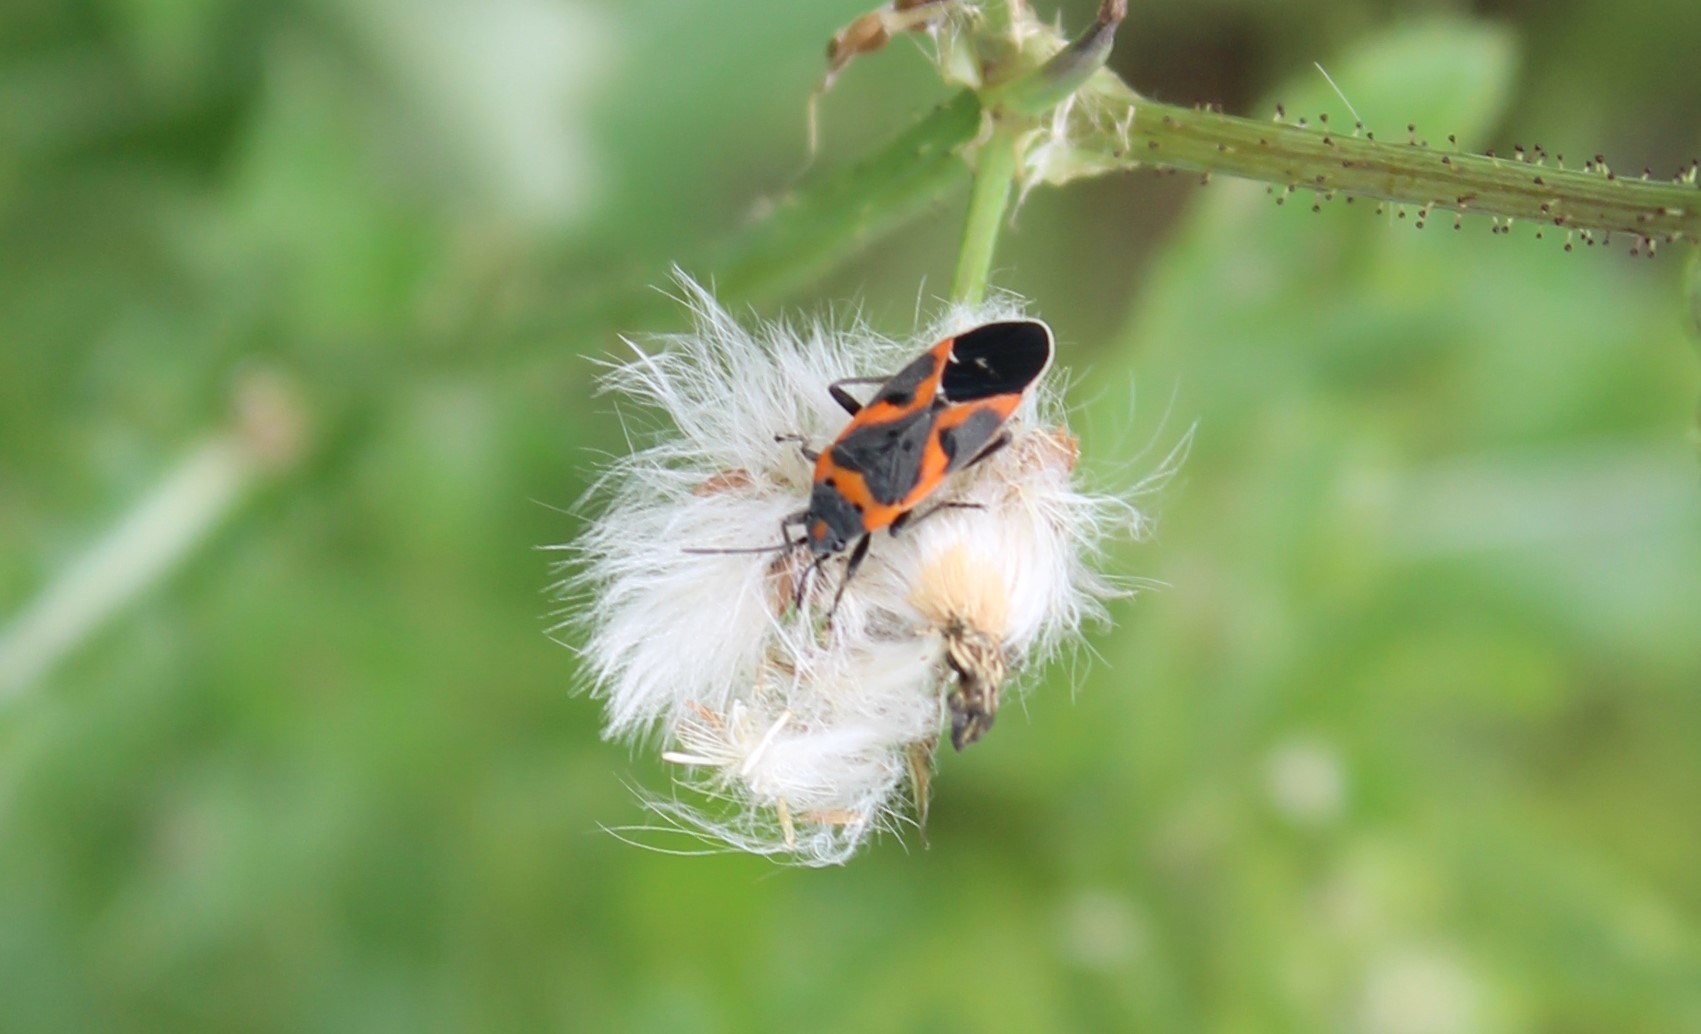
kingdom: Animalia
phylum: Arthropoda
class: Insecta
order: Hemiptera
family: Lygaeidae
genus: Lygaeus
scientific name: Lygaeus kalmii
